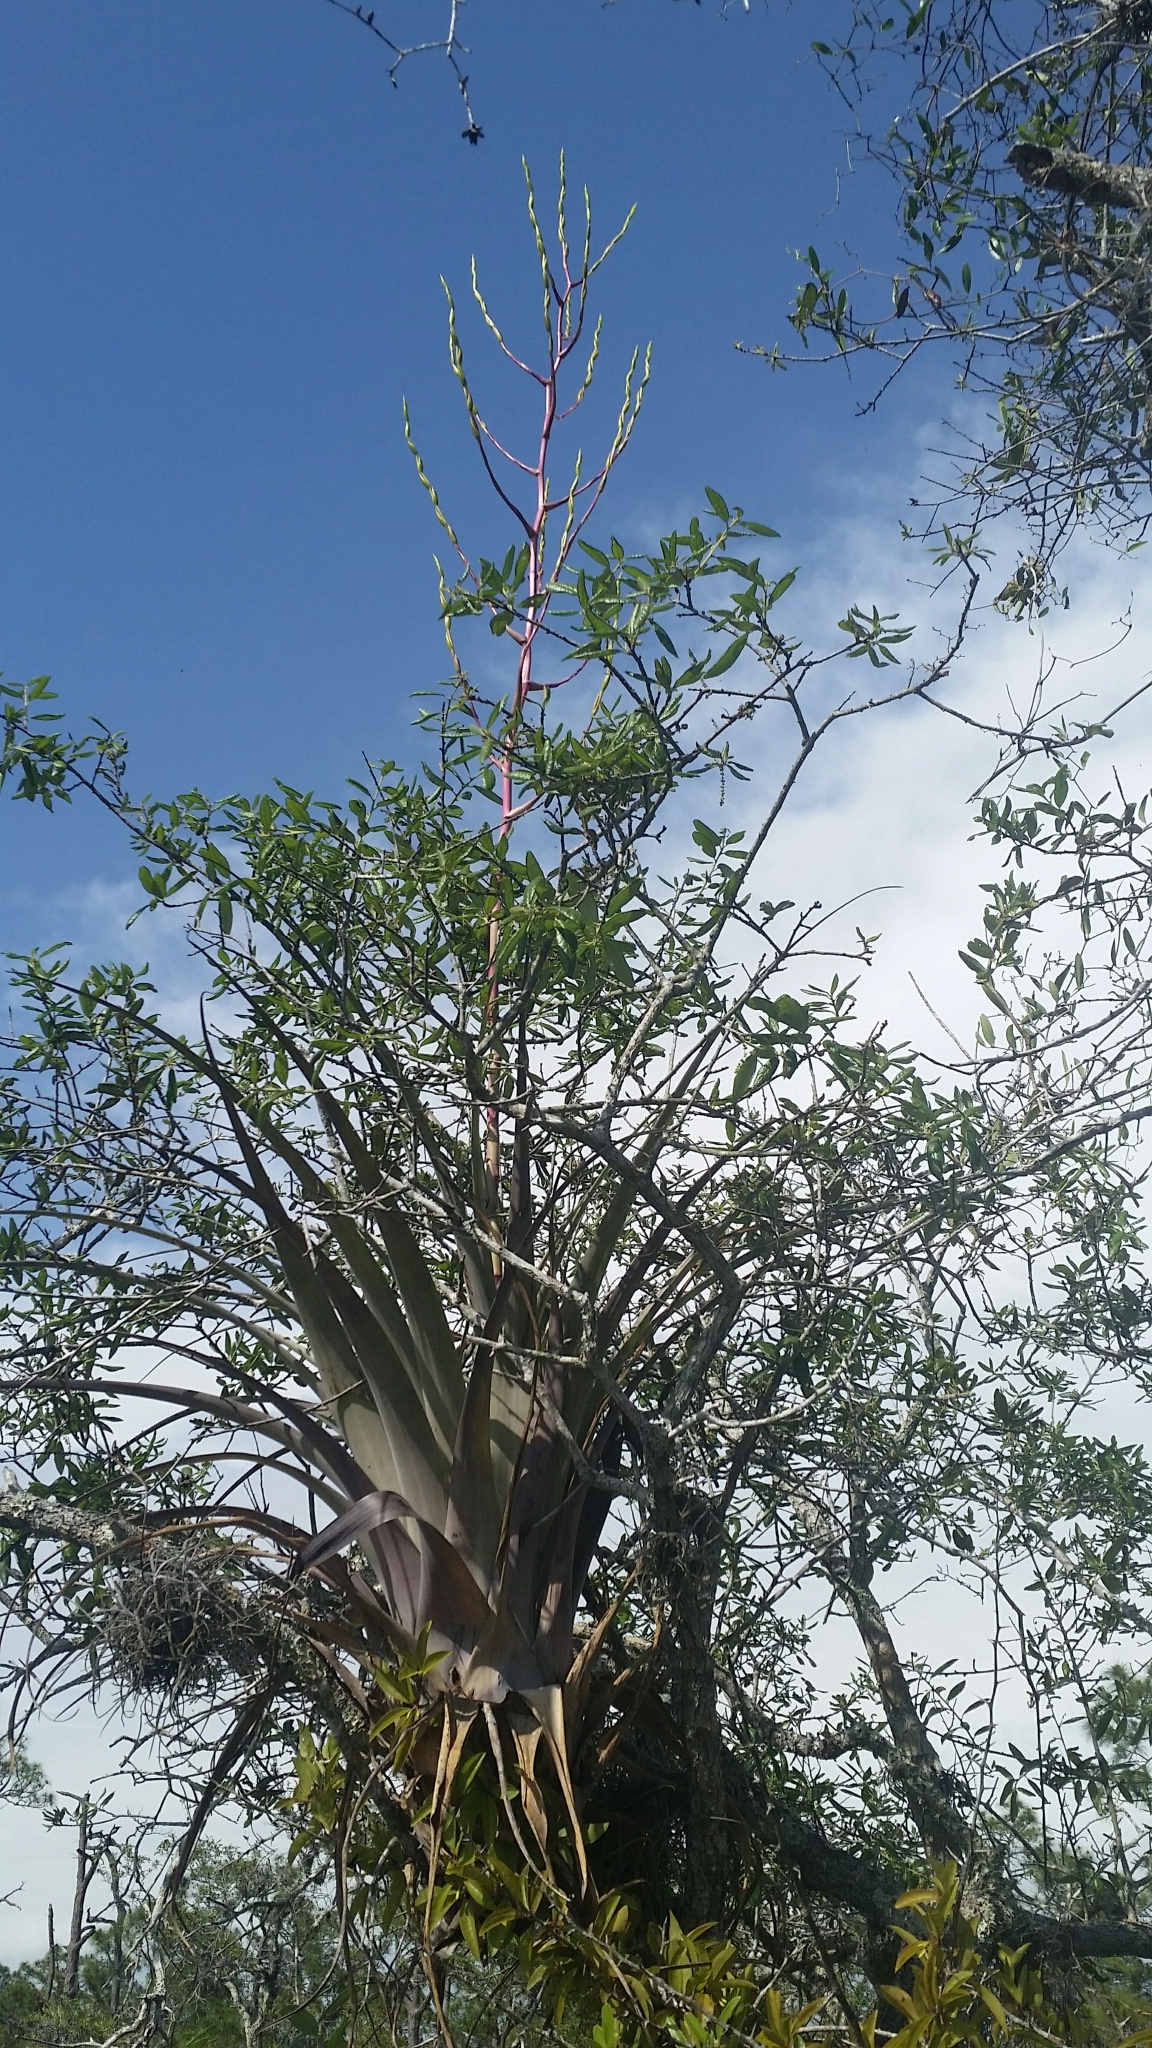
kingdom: Plantae
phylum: Tracheophyta
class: Liliopsida
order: Poales
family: Bromeliaceae
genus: Tillandsia
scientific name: Tillandsia utriculata
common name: Wild pine
